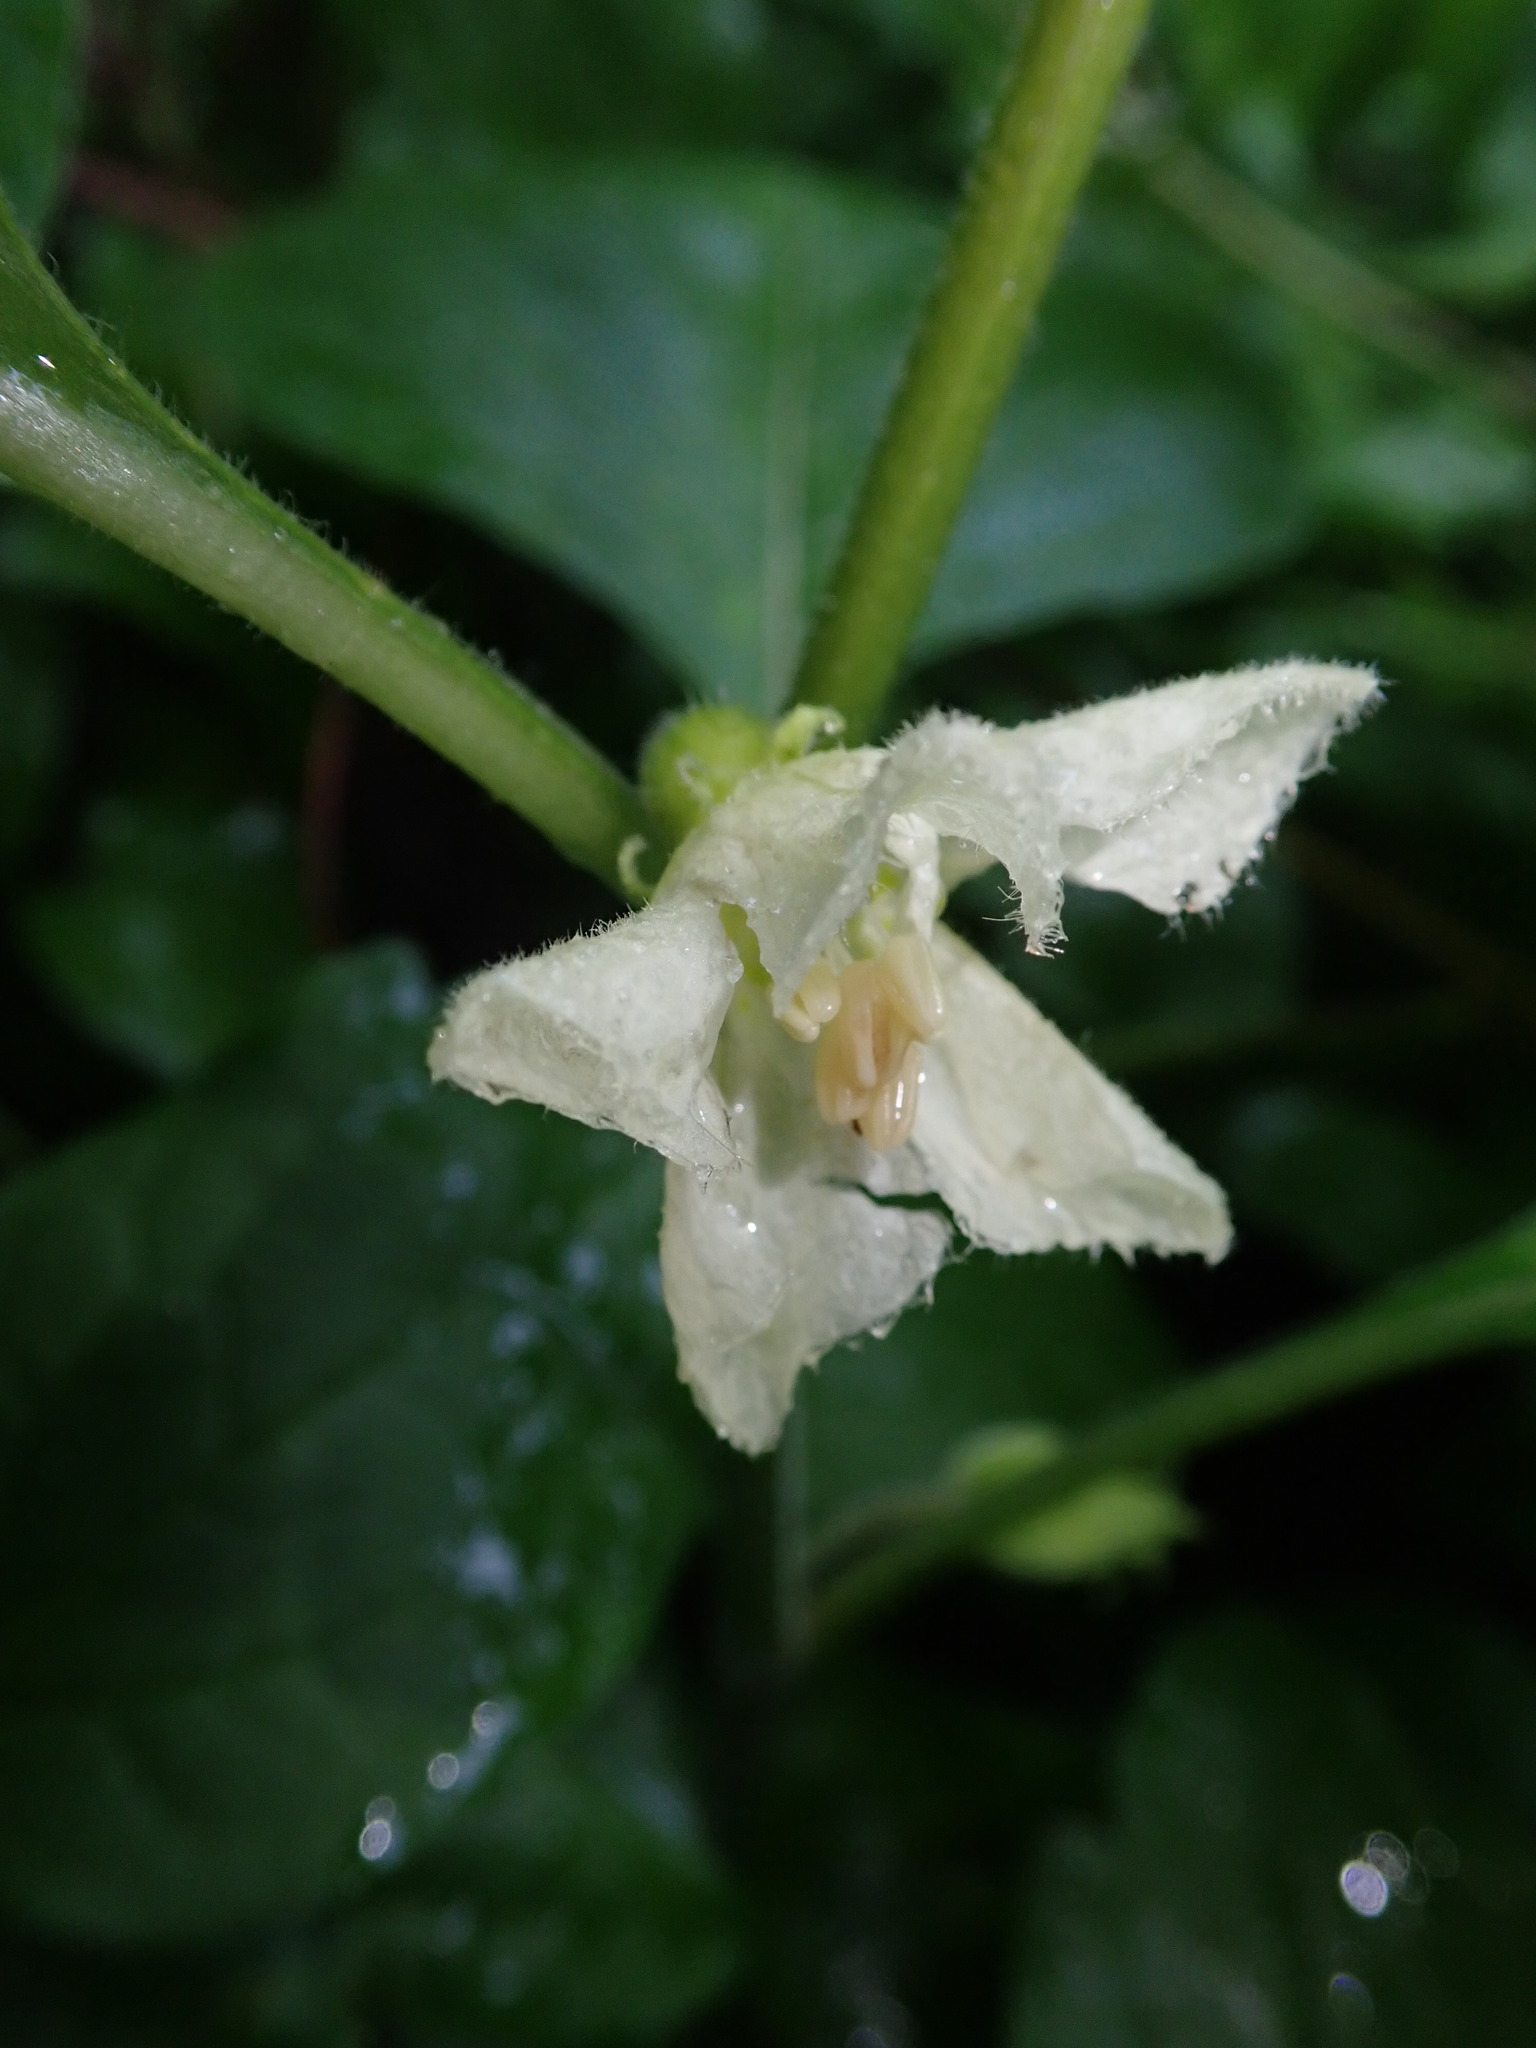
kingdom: Plantae
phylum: Tracheophyta
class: Magnoliopsida
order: Solanales
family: Solanaceae
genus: Alkekengi
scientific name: Alkekengi officinarum
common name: Japanese-lantern
